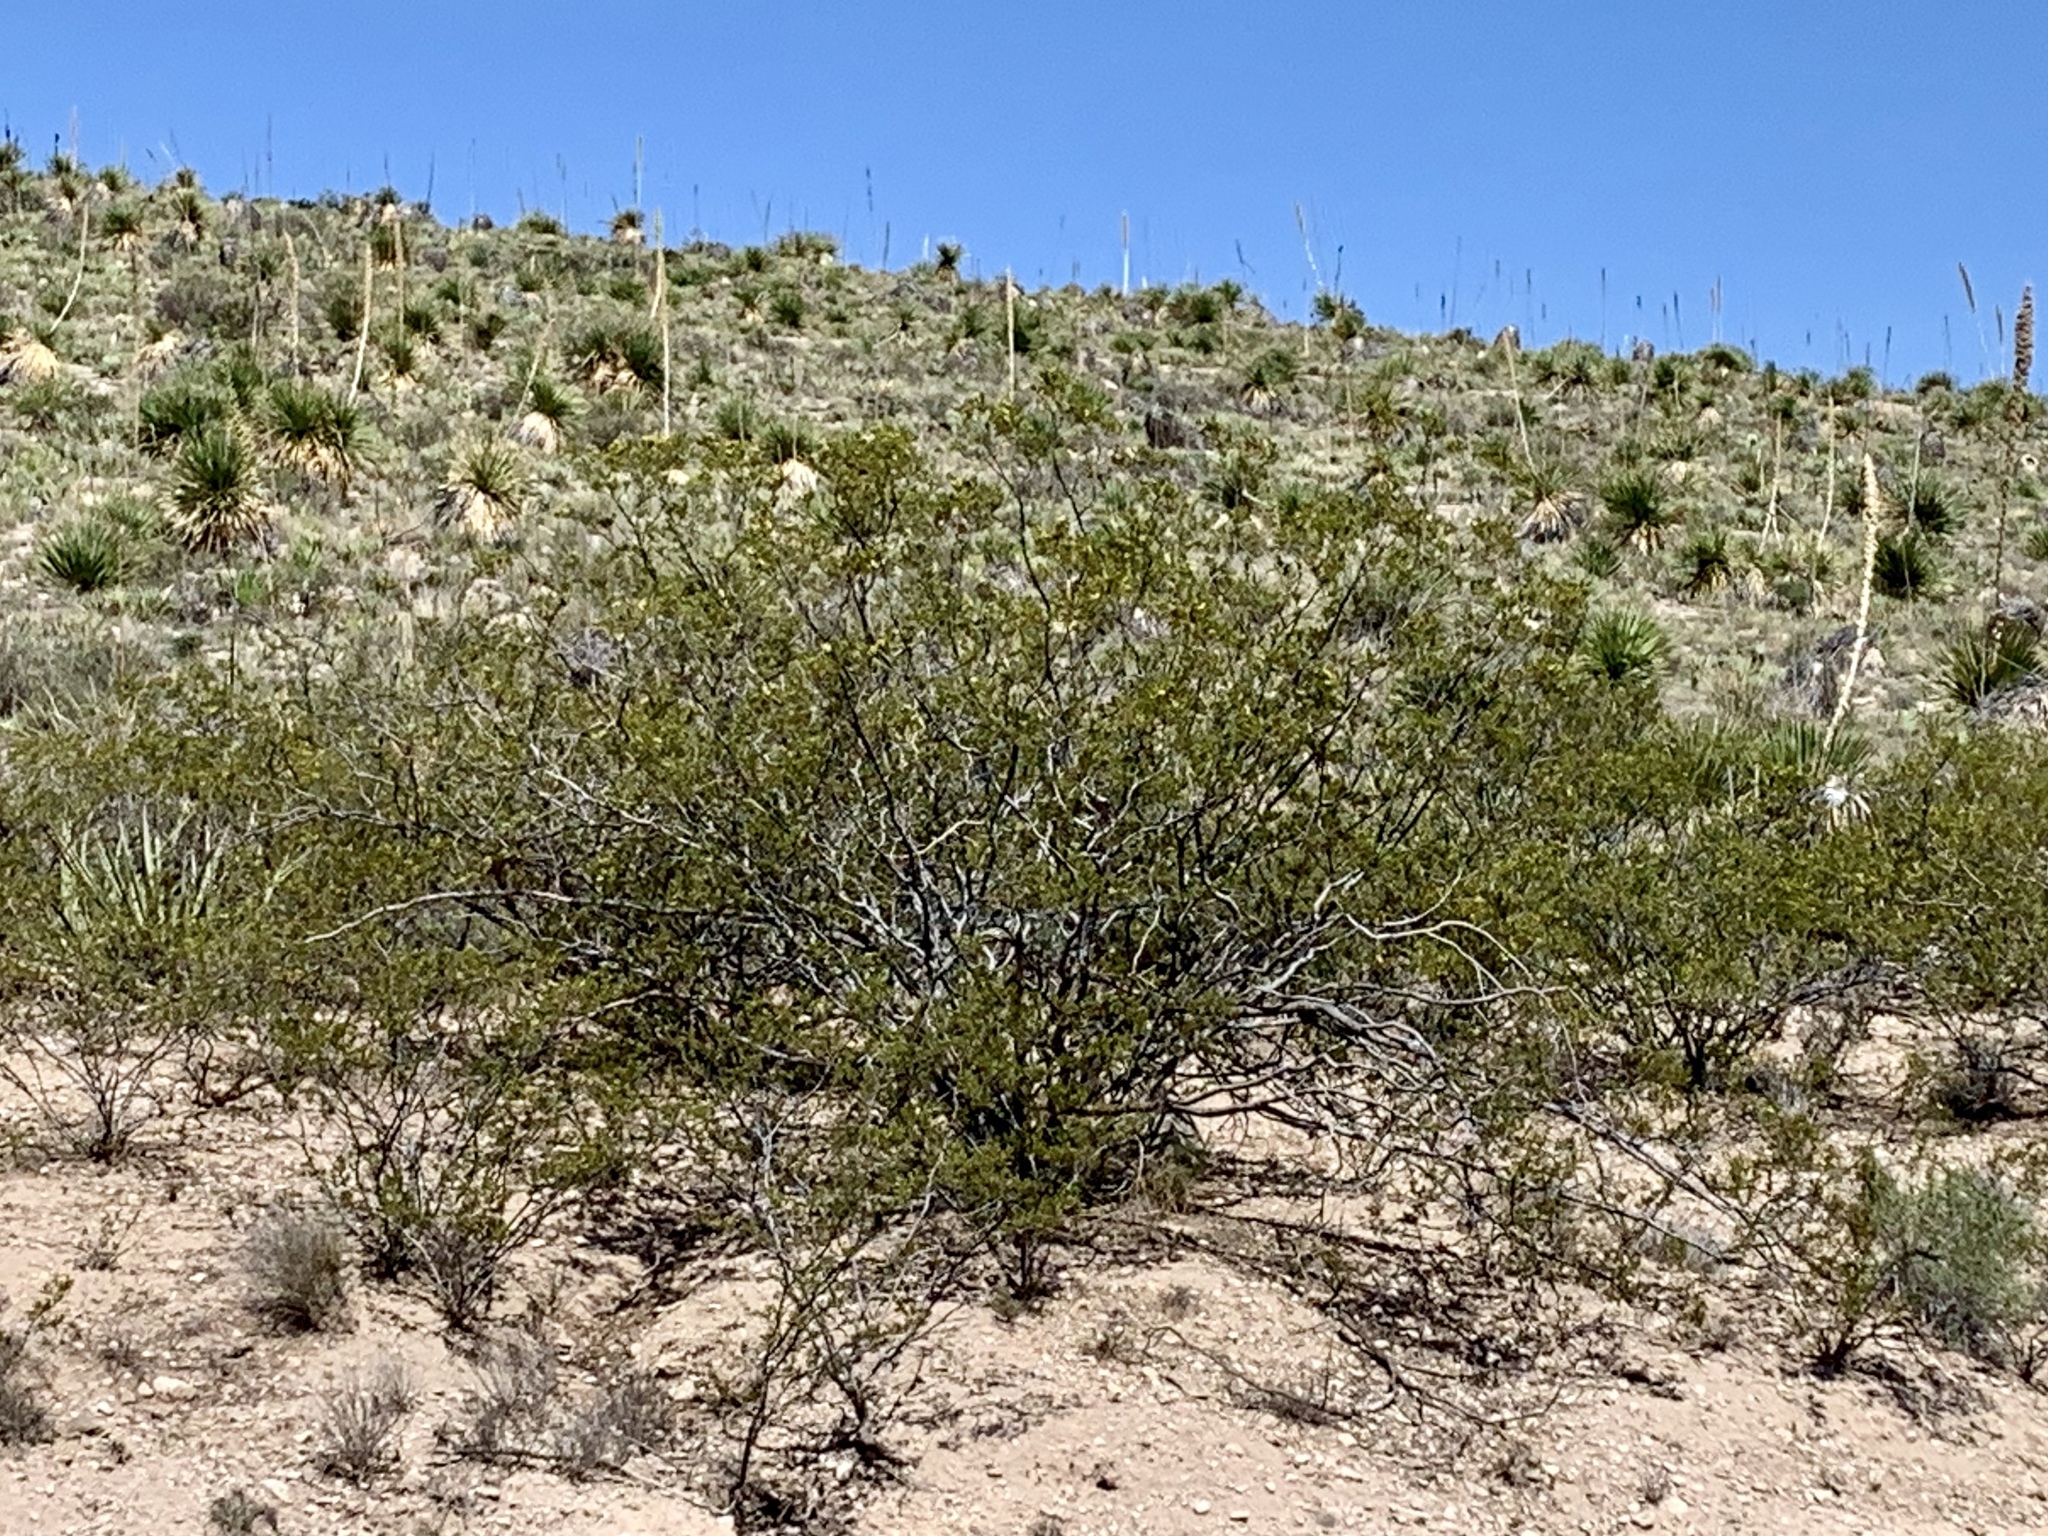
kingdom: Plantae
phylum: Tracheophyta
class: Magnoliopsida
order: Zygophyllales
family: Zygophyllaceae
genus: Larrea
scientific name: Larrea tridentata
